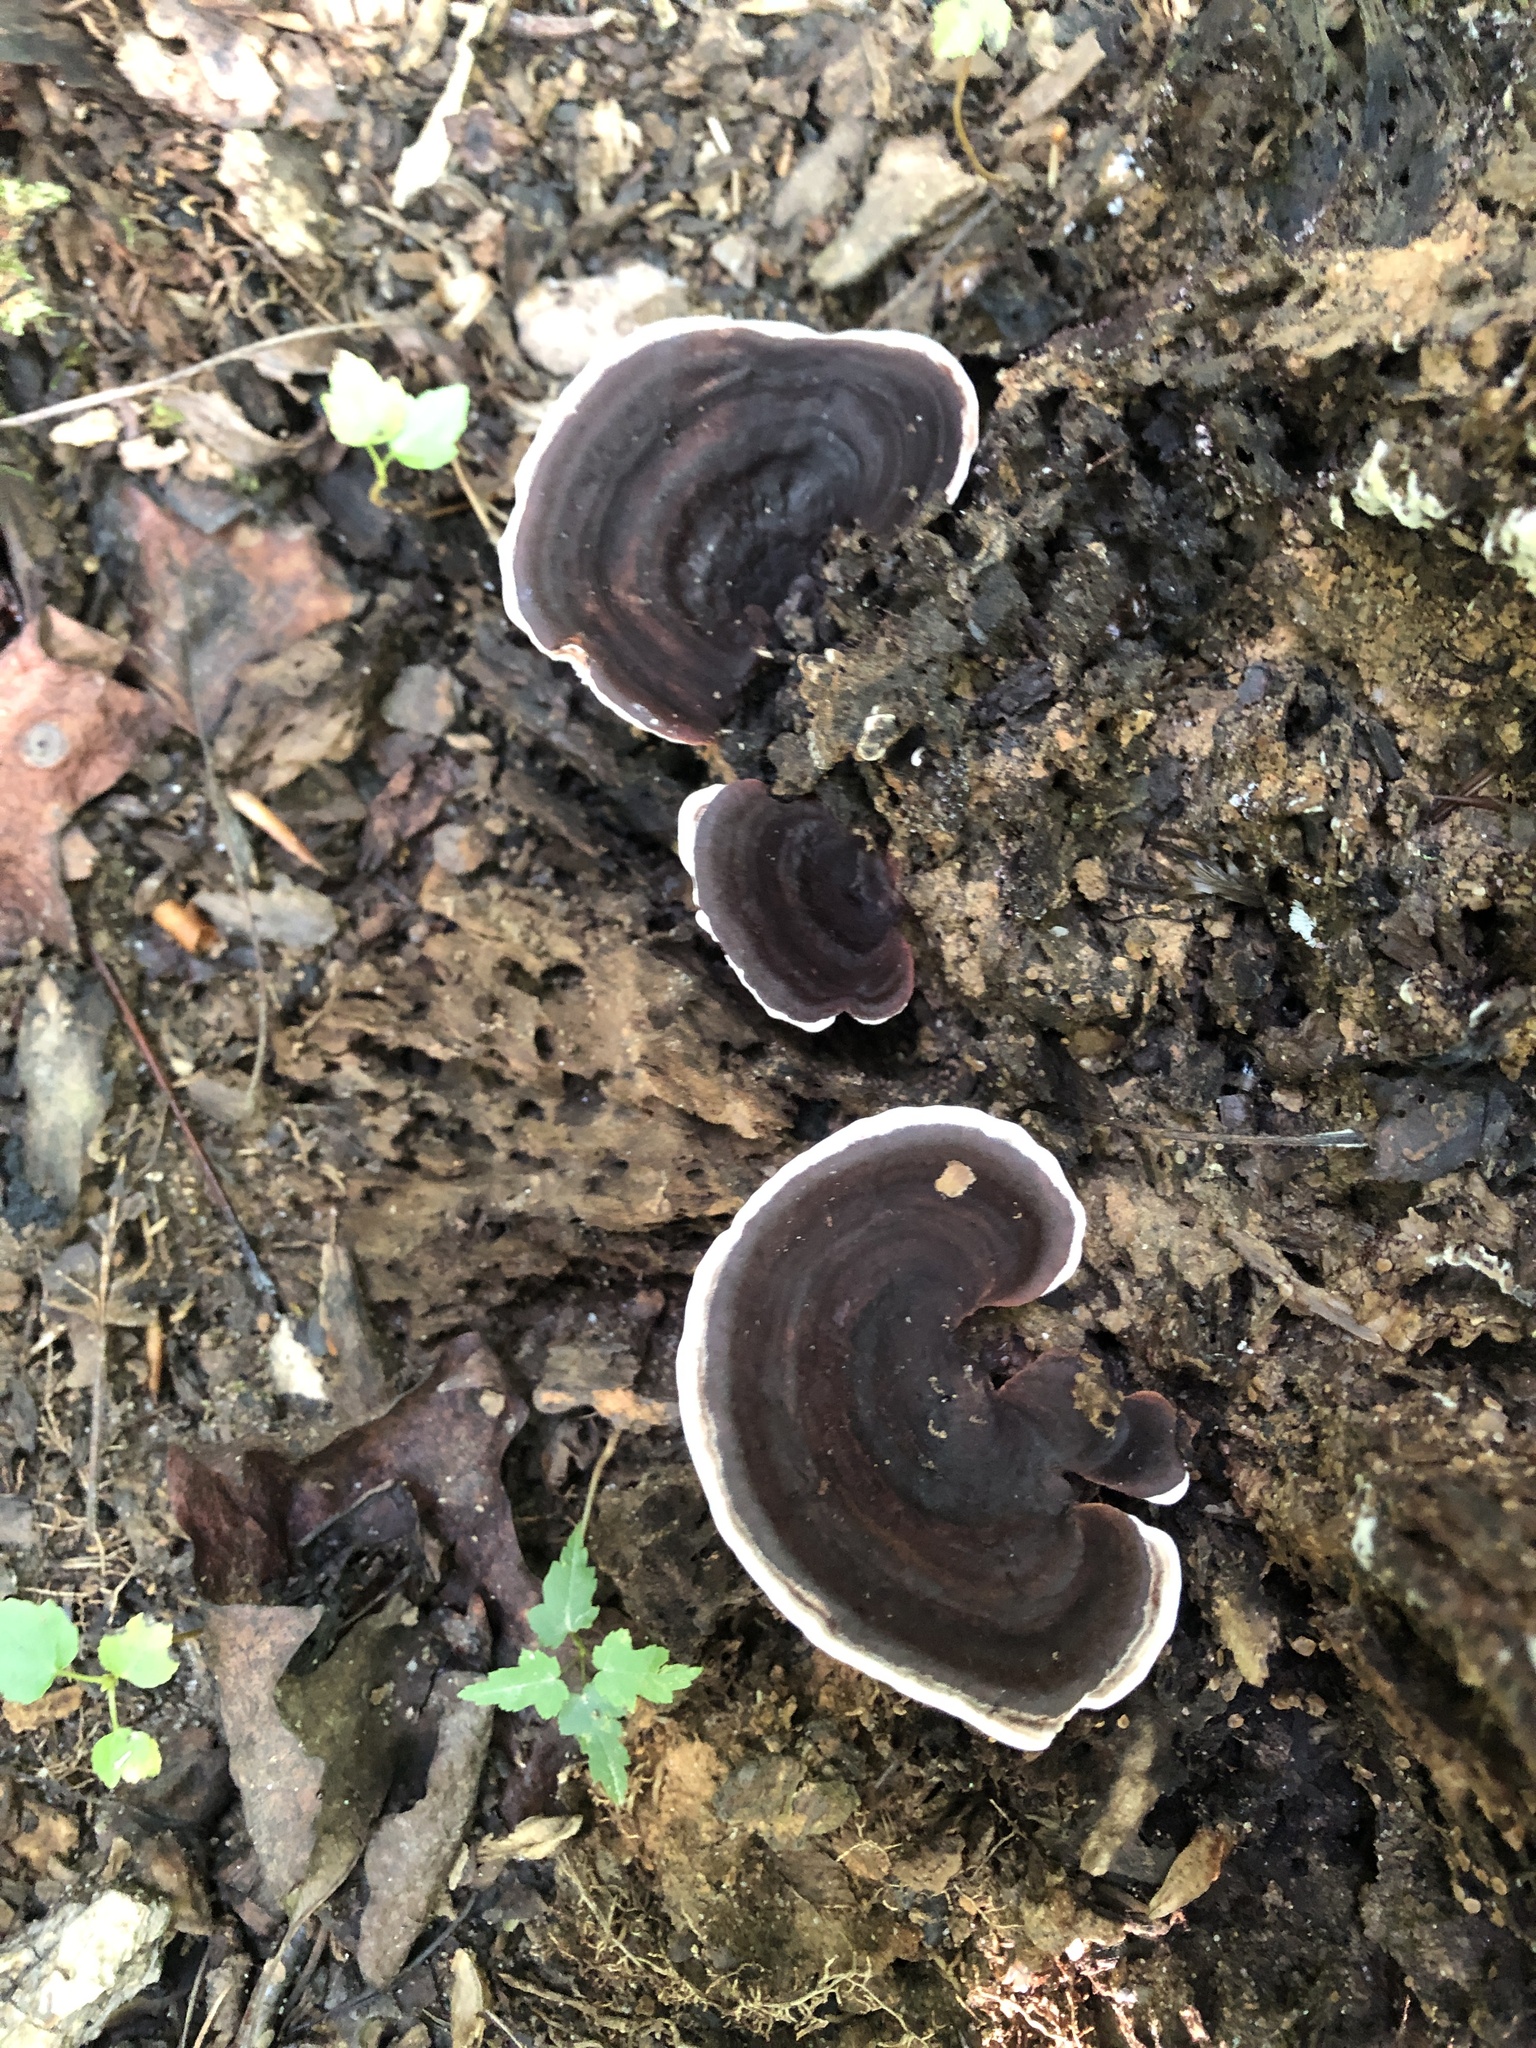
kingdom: Fungi
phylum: Basidiomycota
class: Agaricomycetes
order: Polyporales
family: Steccherinaceae
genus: Nigroporus
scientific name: Nigroporus vinosus
